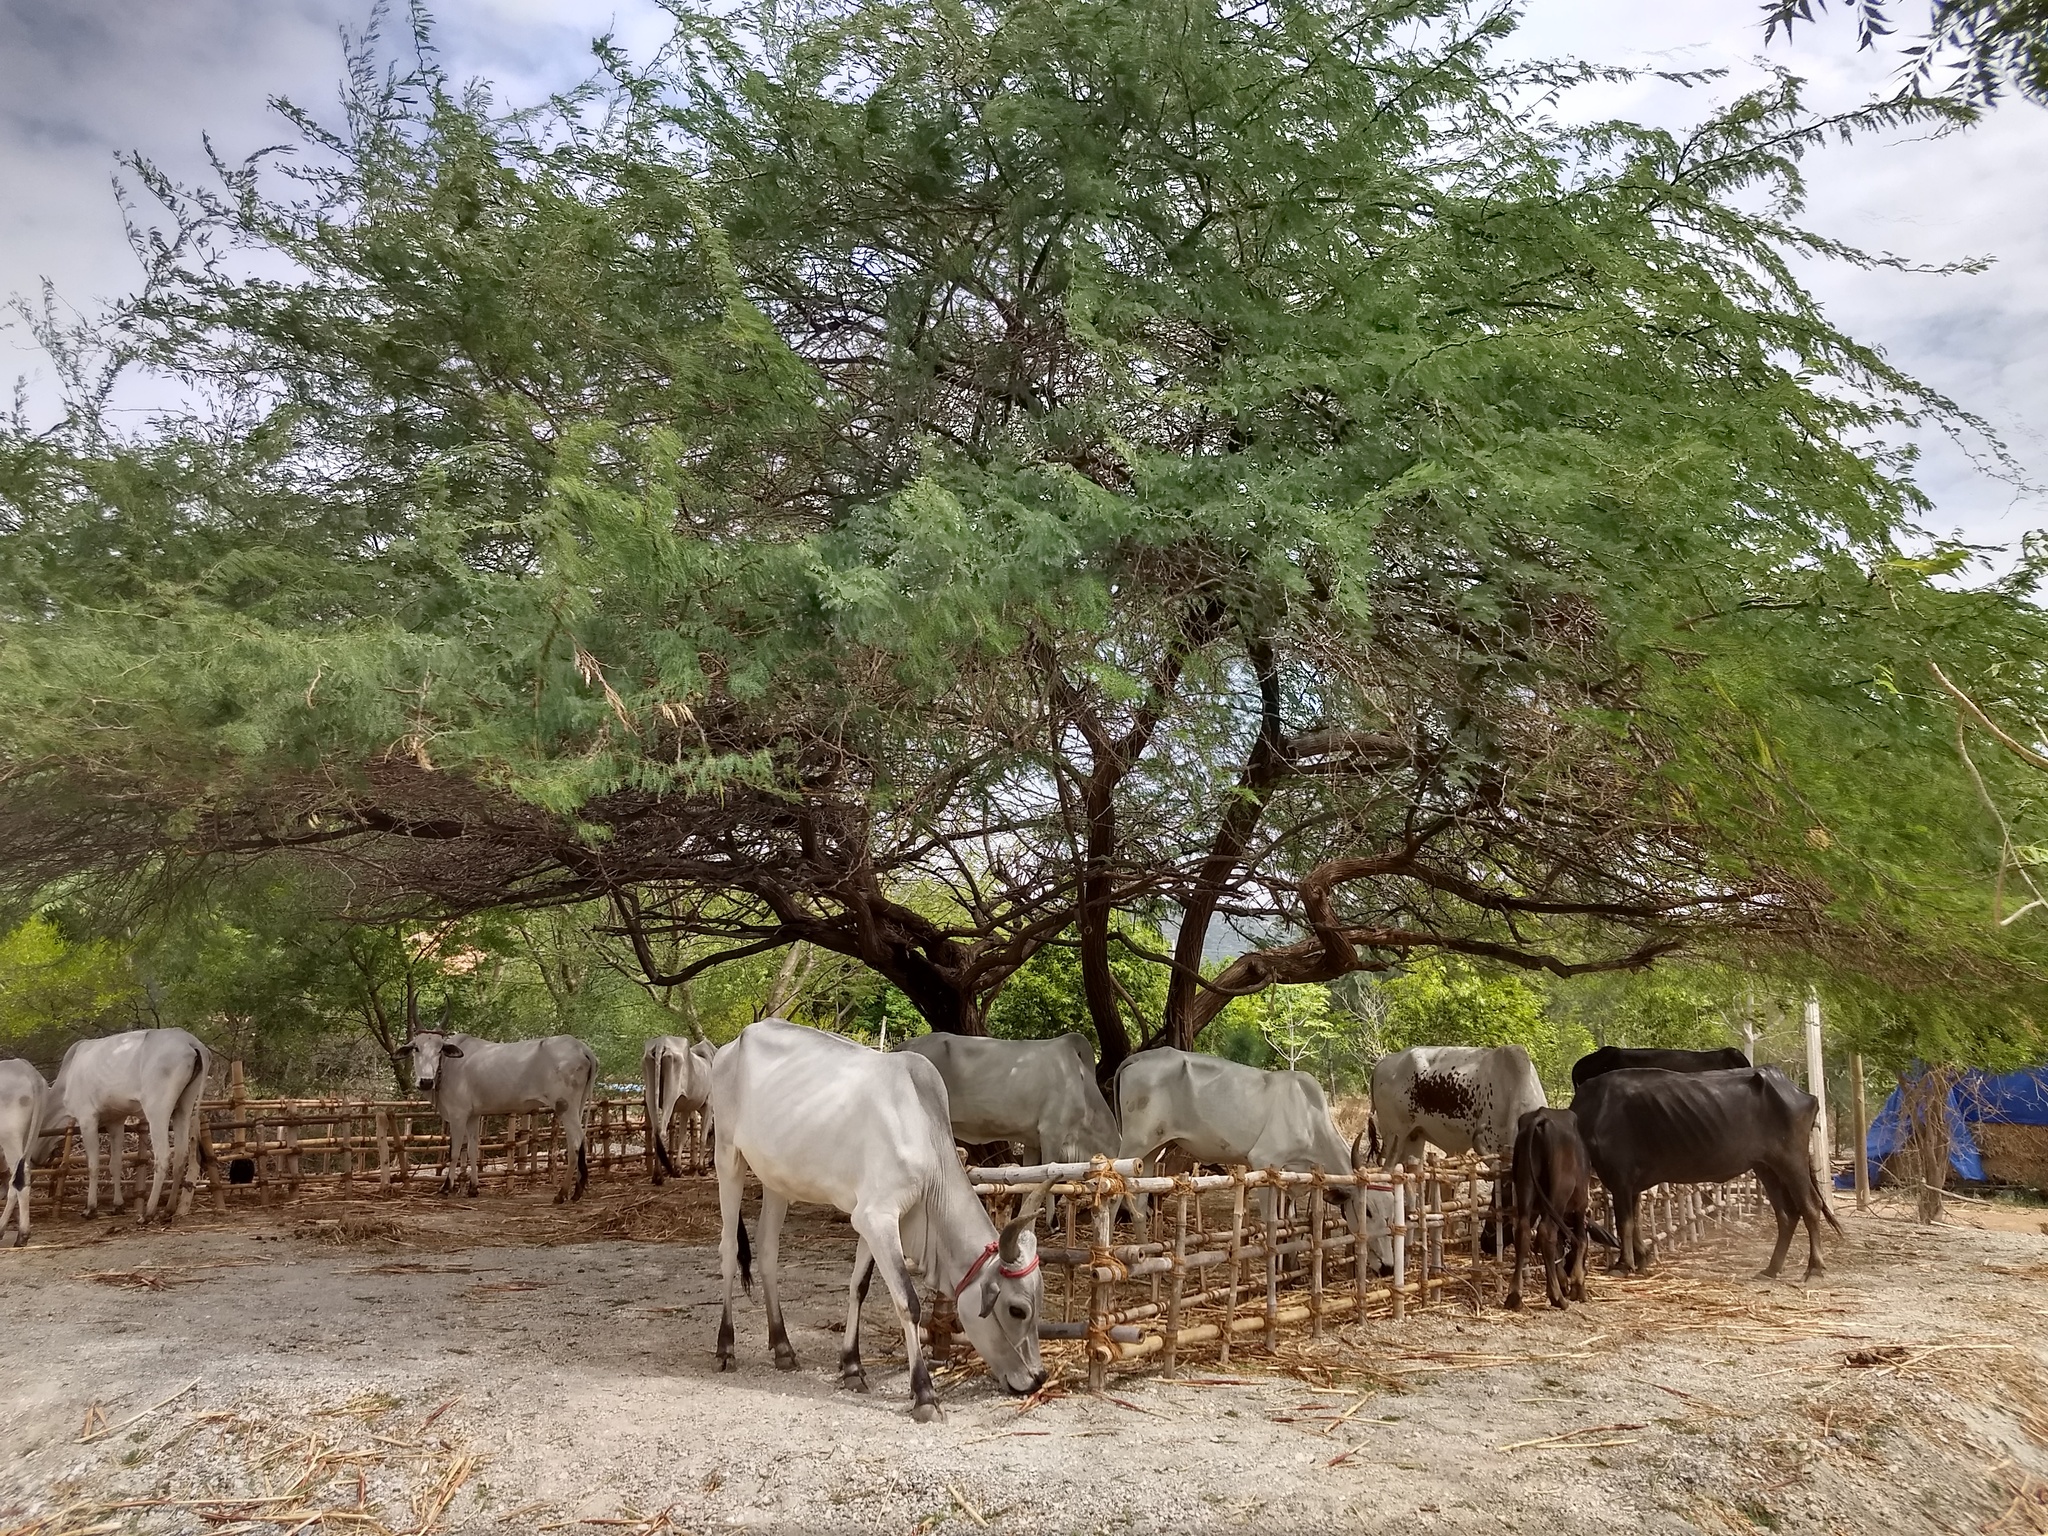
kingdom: Plantae
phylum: Tracheophyta
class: Magnoliopsida
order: Fabales
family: Fabaceae
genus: Prosopis
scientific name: Prosopis juliflora
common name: Mesquite
